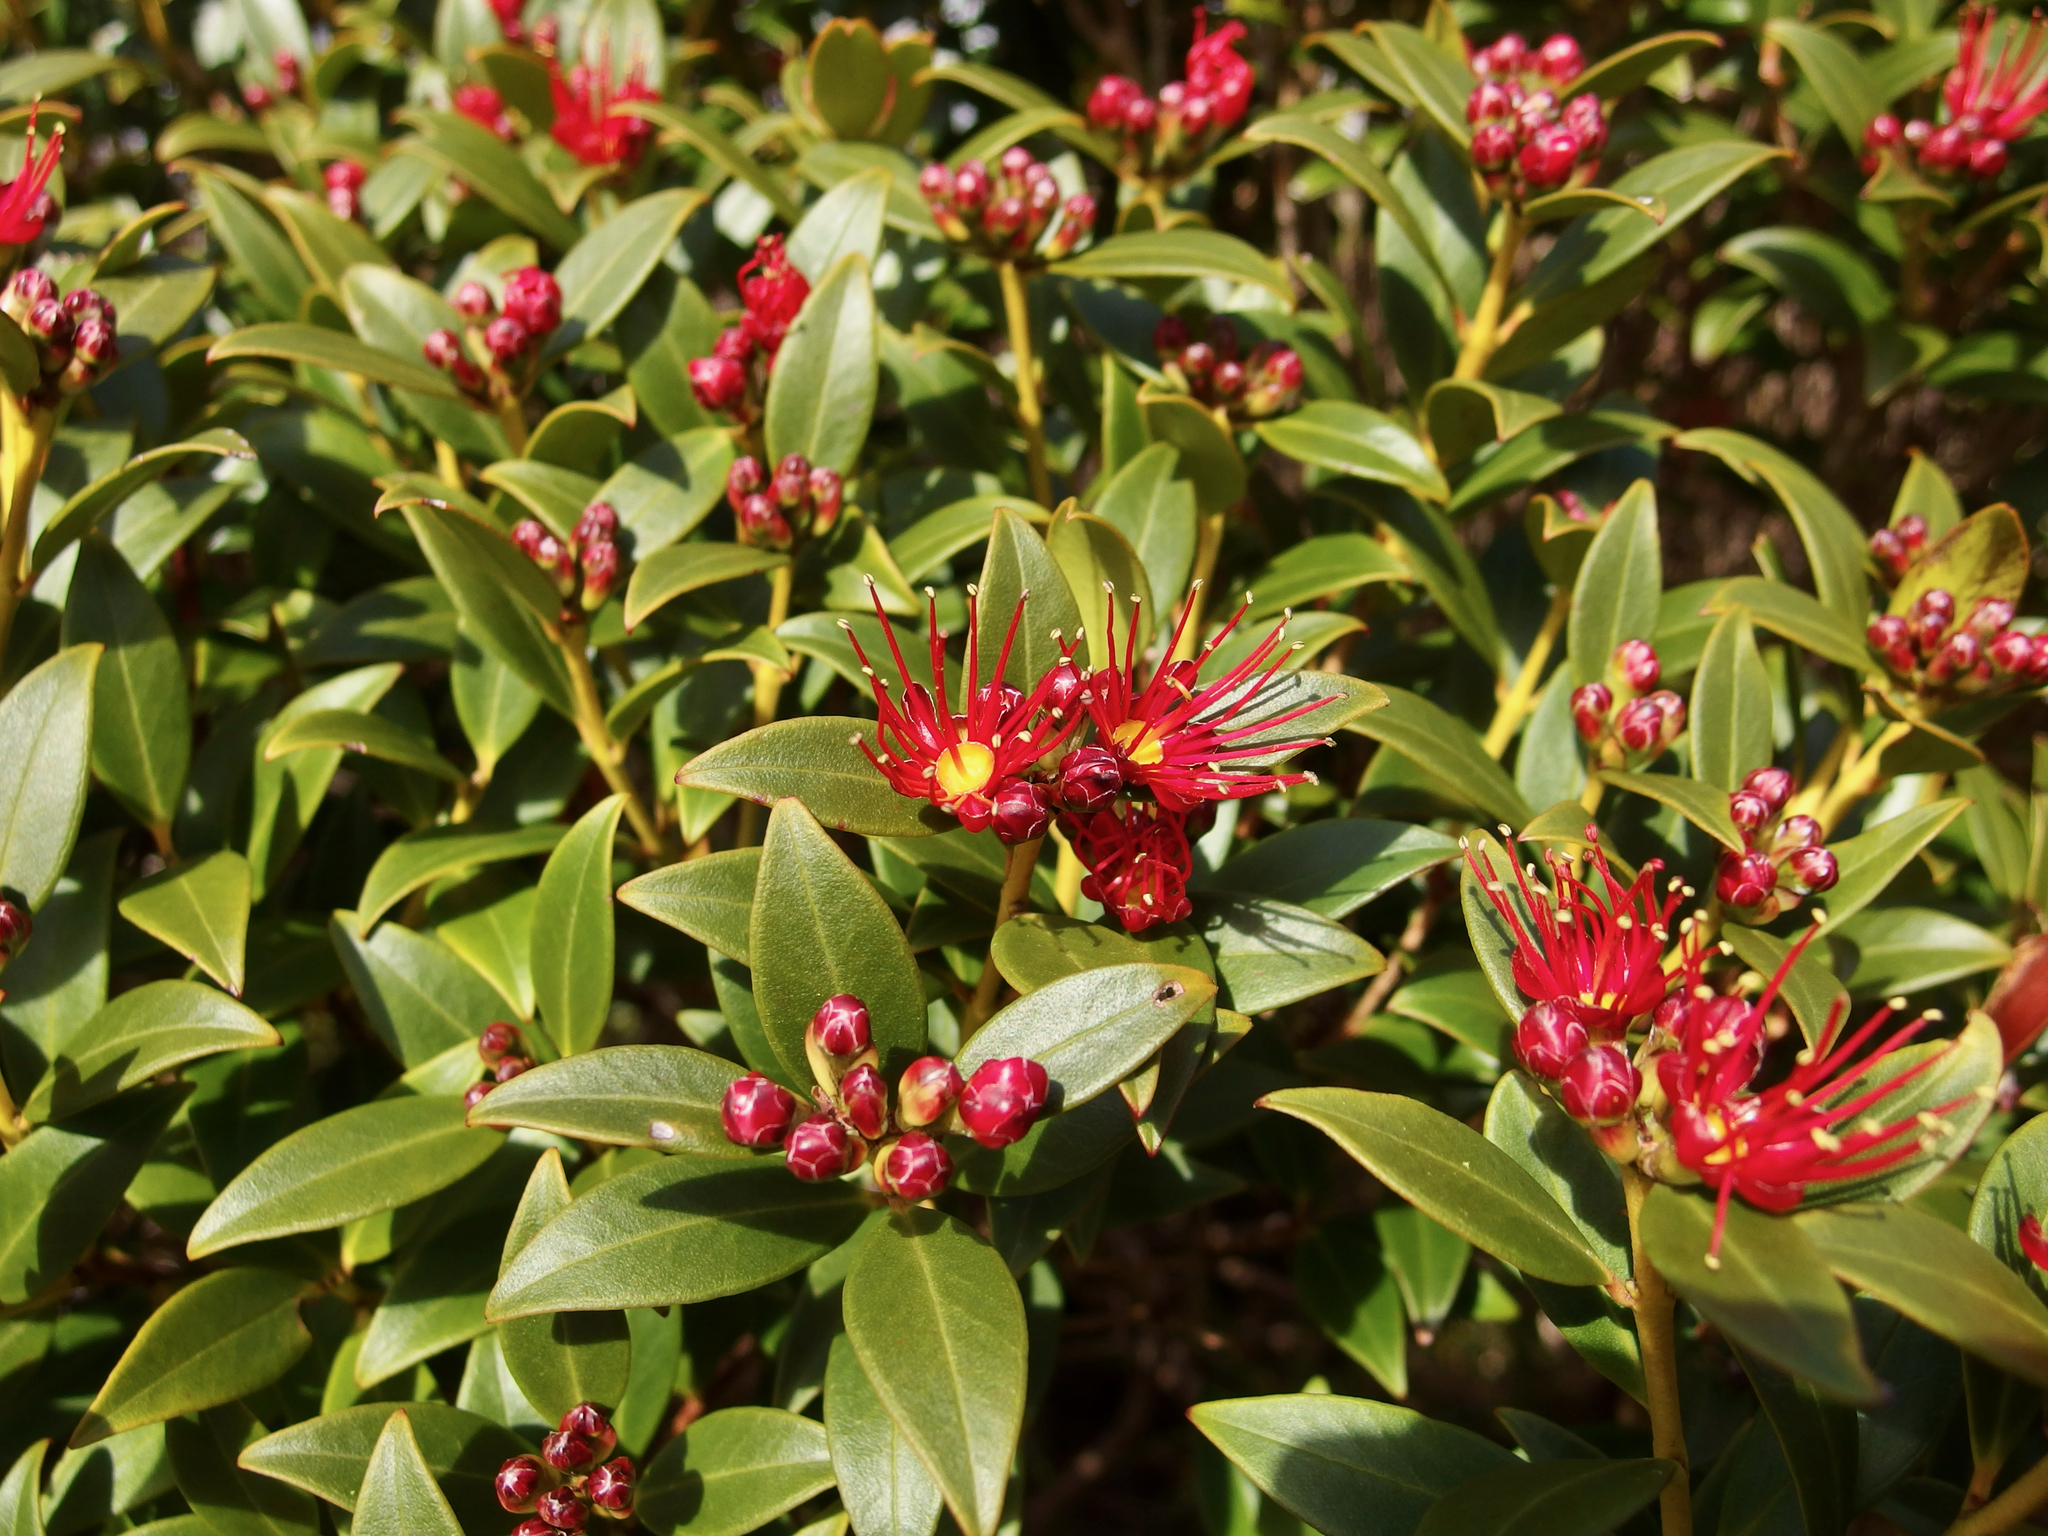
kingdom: Plantae
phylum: Tracheophyta
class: Magnoliopsida
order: Myrtales
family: Myrtaceae
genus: Metrosideros
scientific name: Metrosideros umbellata
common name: Southern rata
